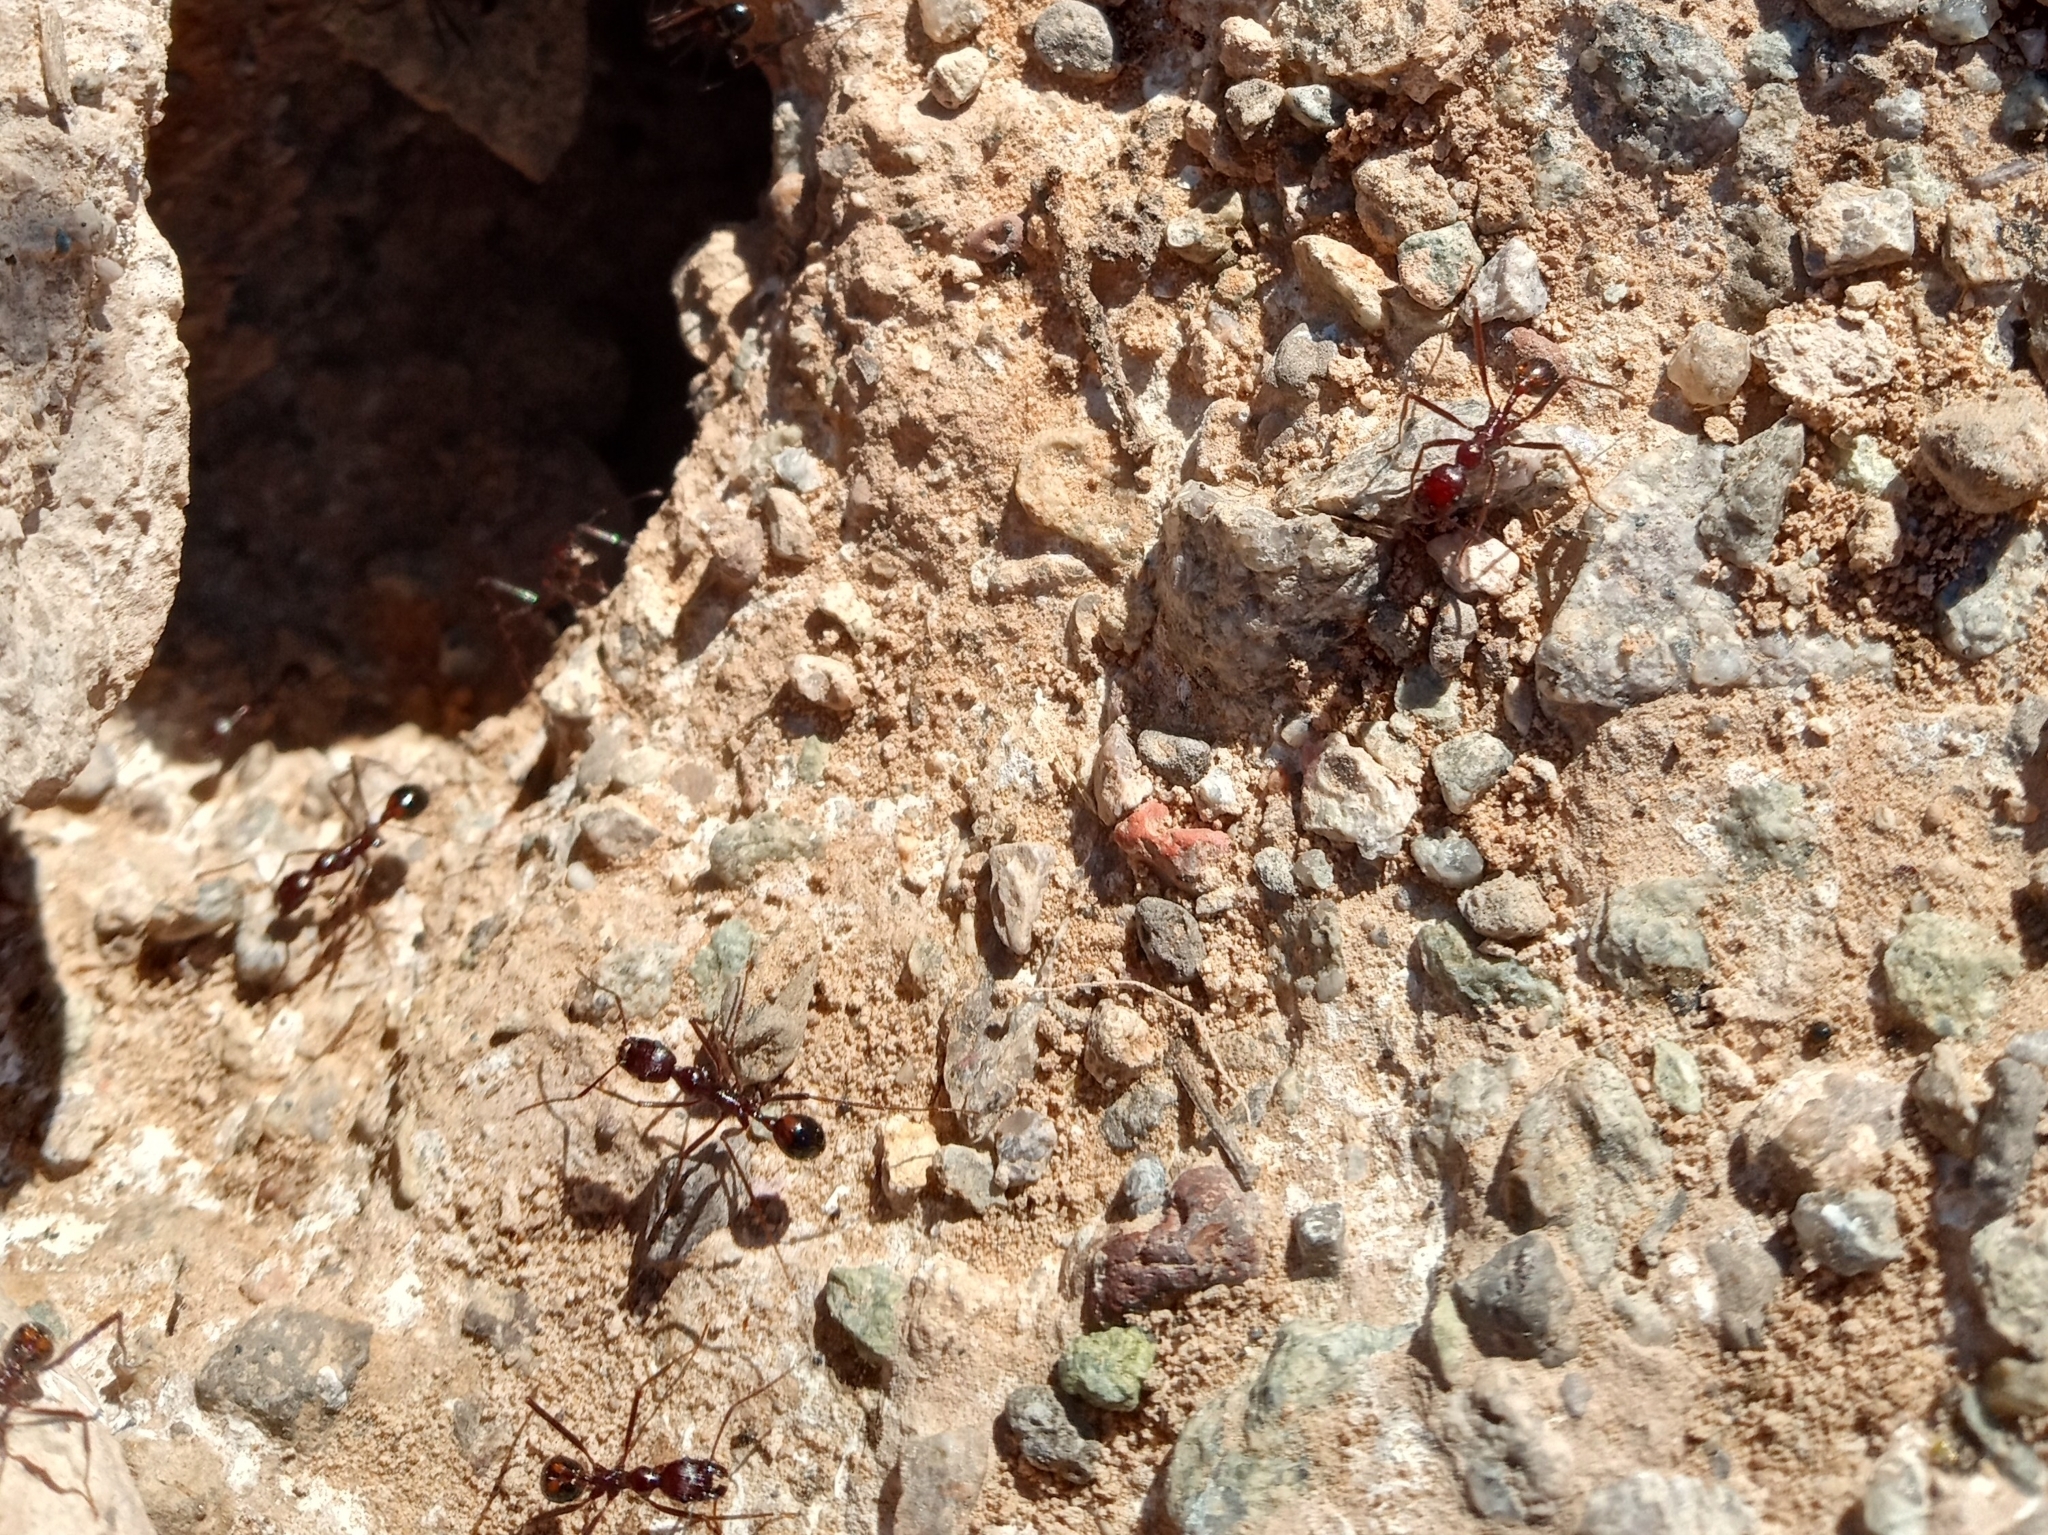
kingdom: Animalia
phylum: Arthropoda
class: Insecta
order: Hymenoptera
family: Formicidae
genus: Novomessor
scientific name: Novomessor cockerelli
